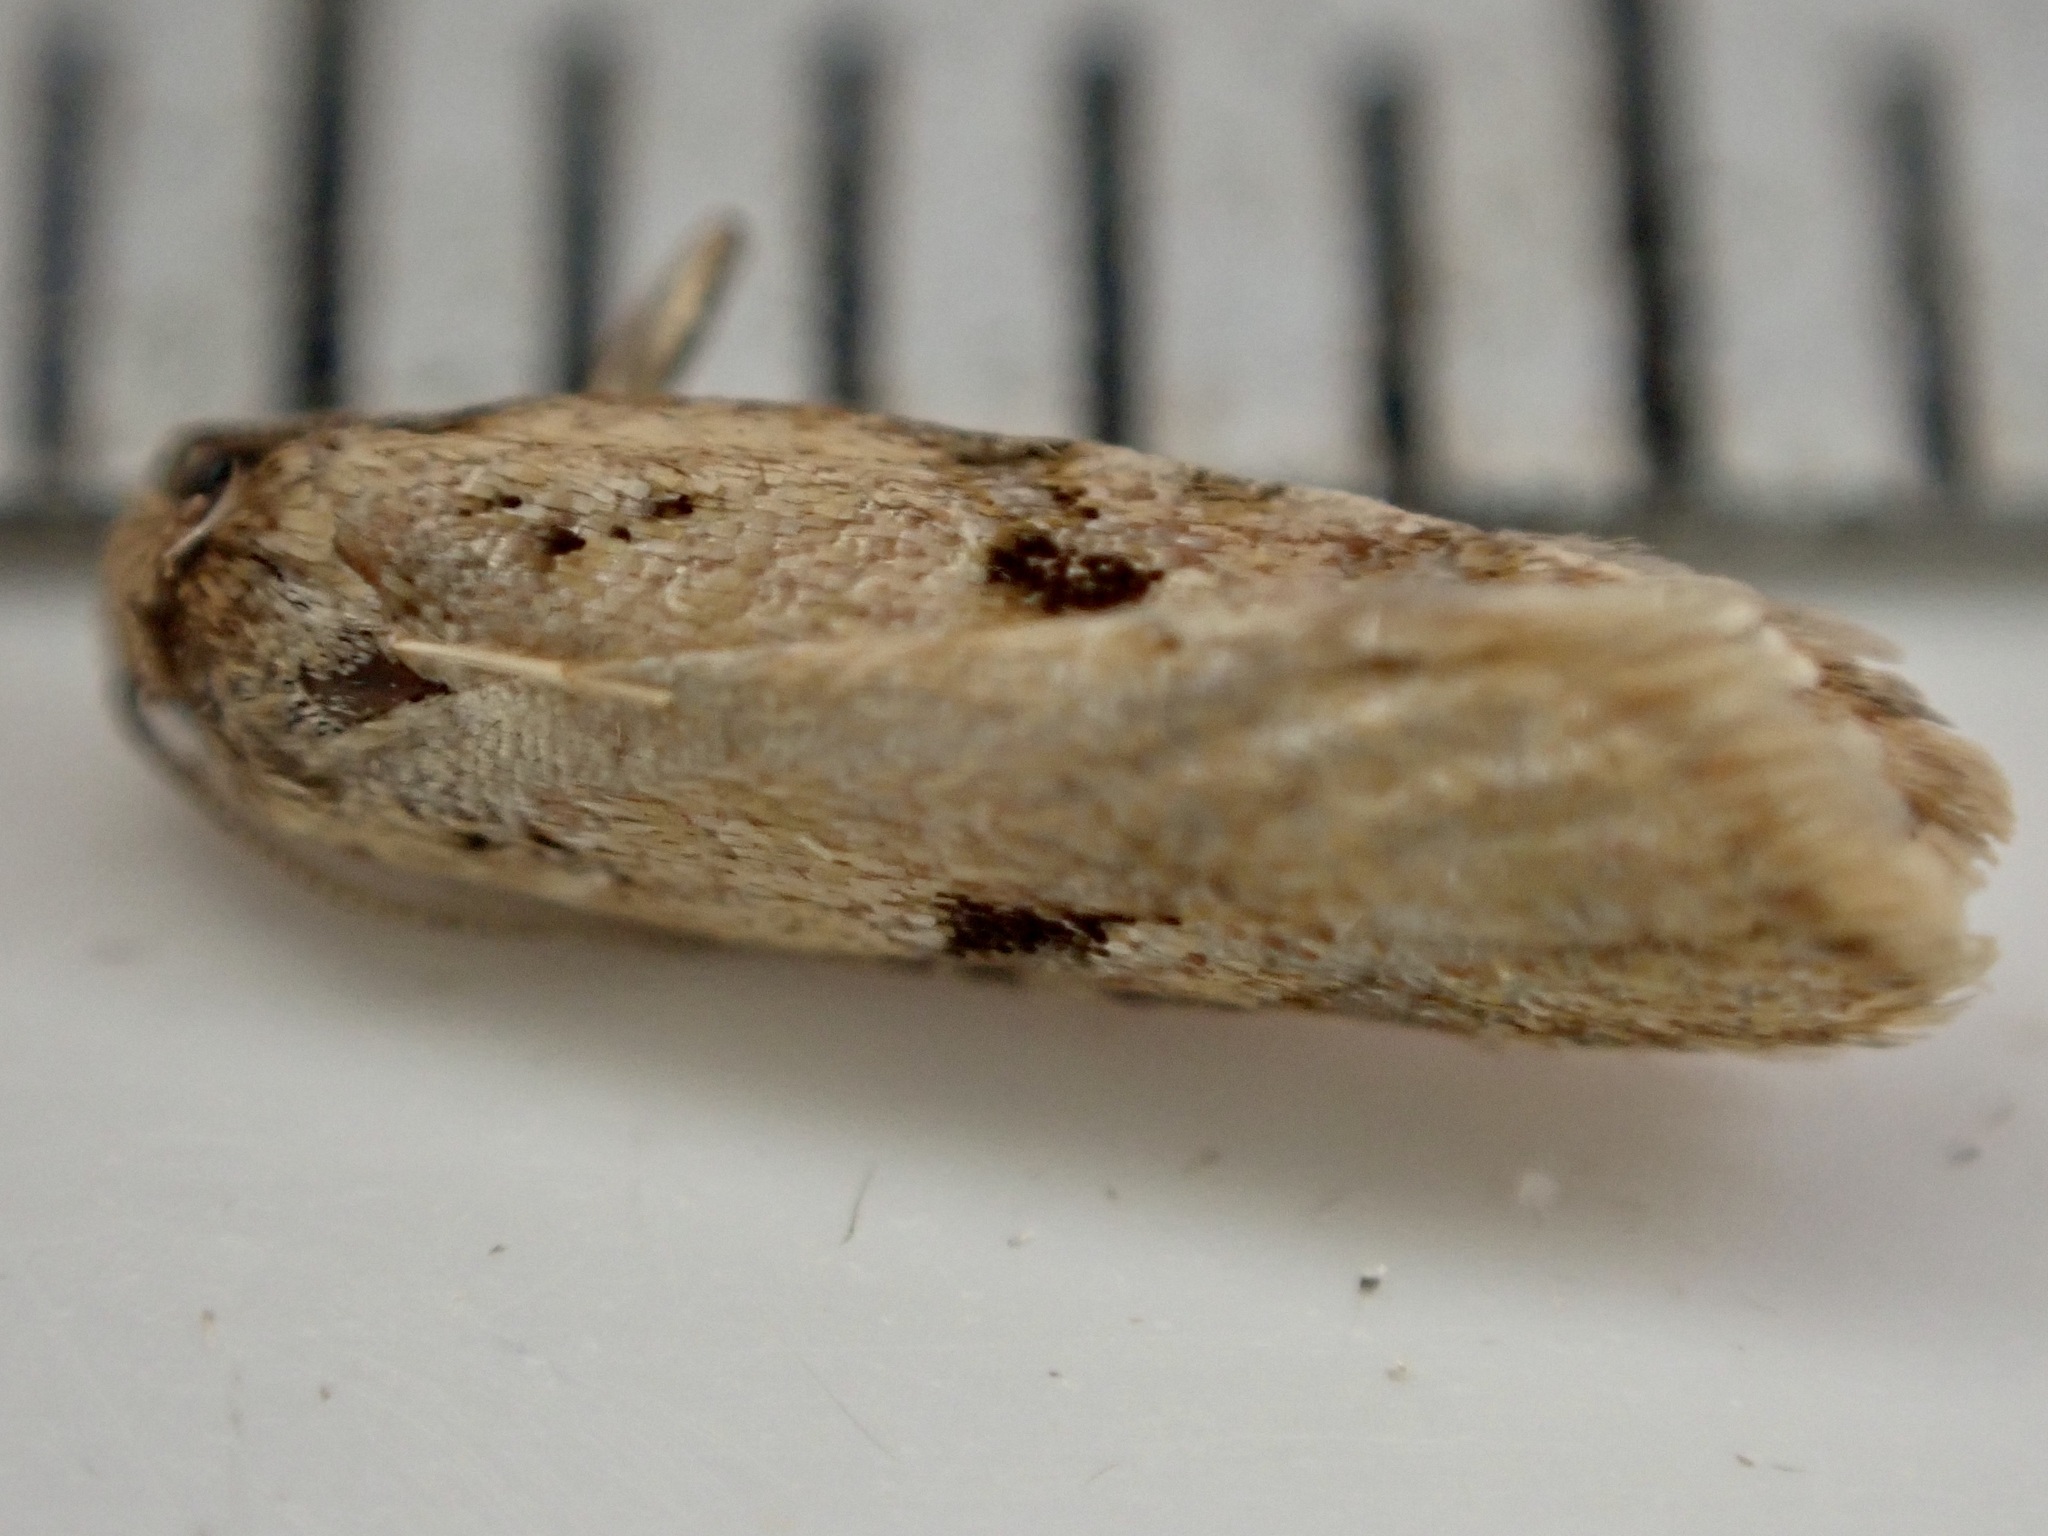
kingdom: Animalia
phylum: Arthropoda
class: Insecta
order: Lepidoptera
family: Tortricidae
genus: Capua
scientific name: Capua semiferana
